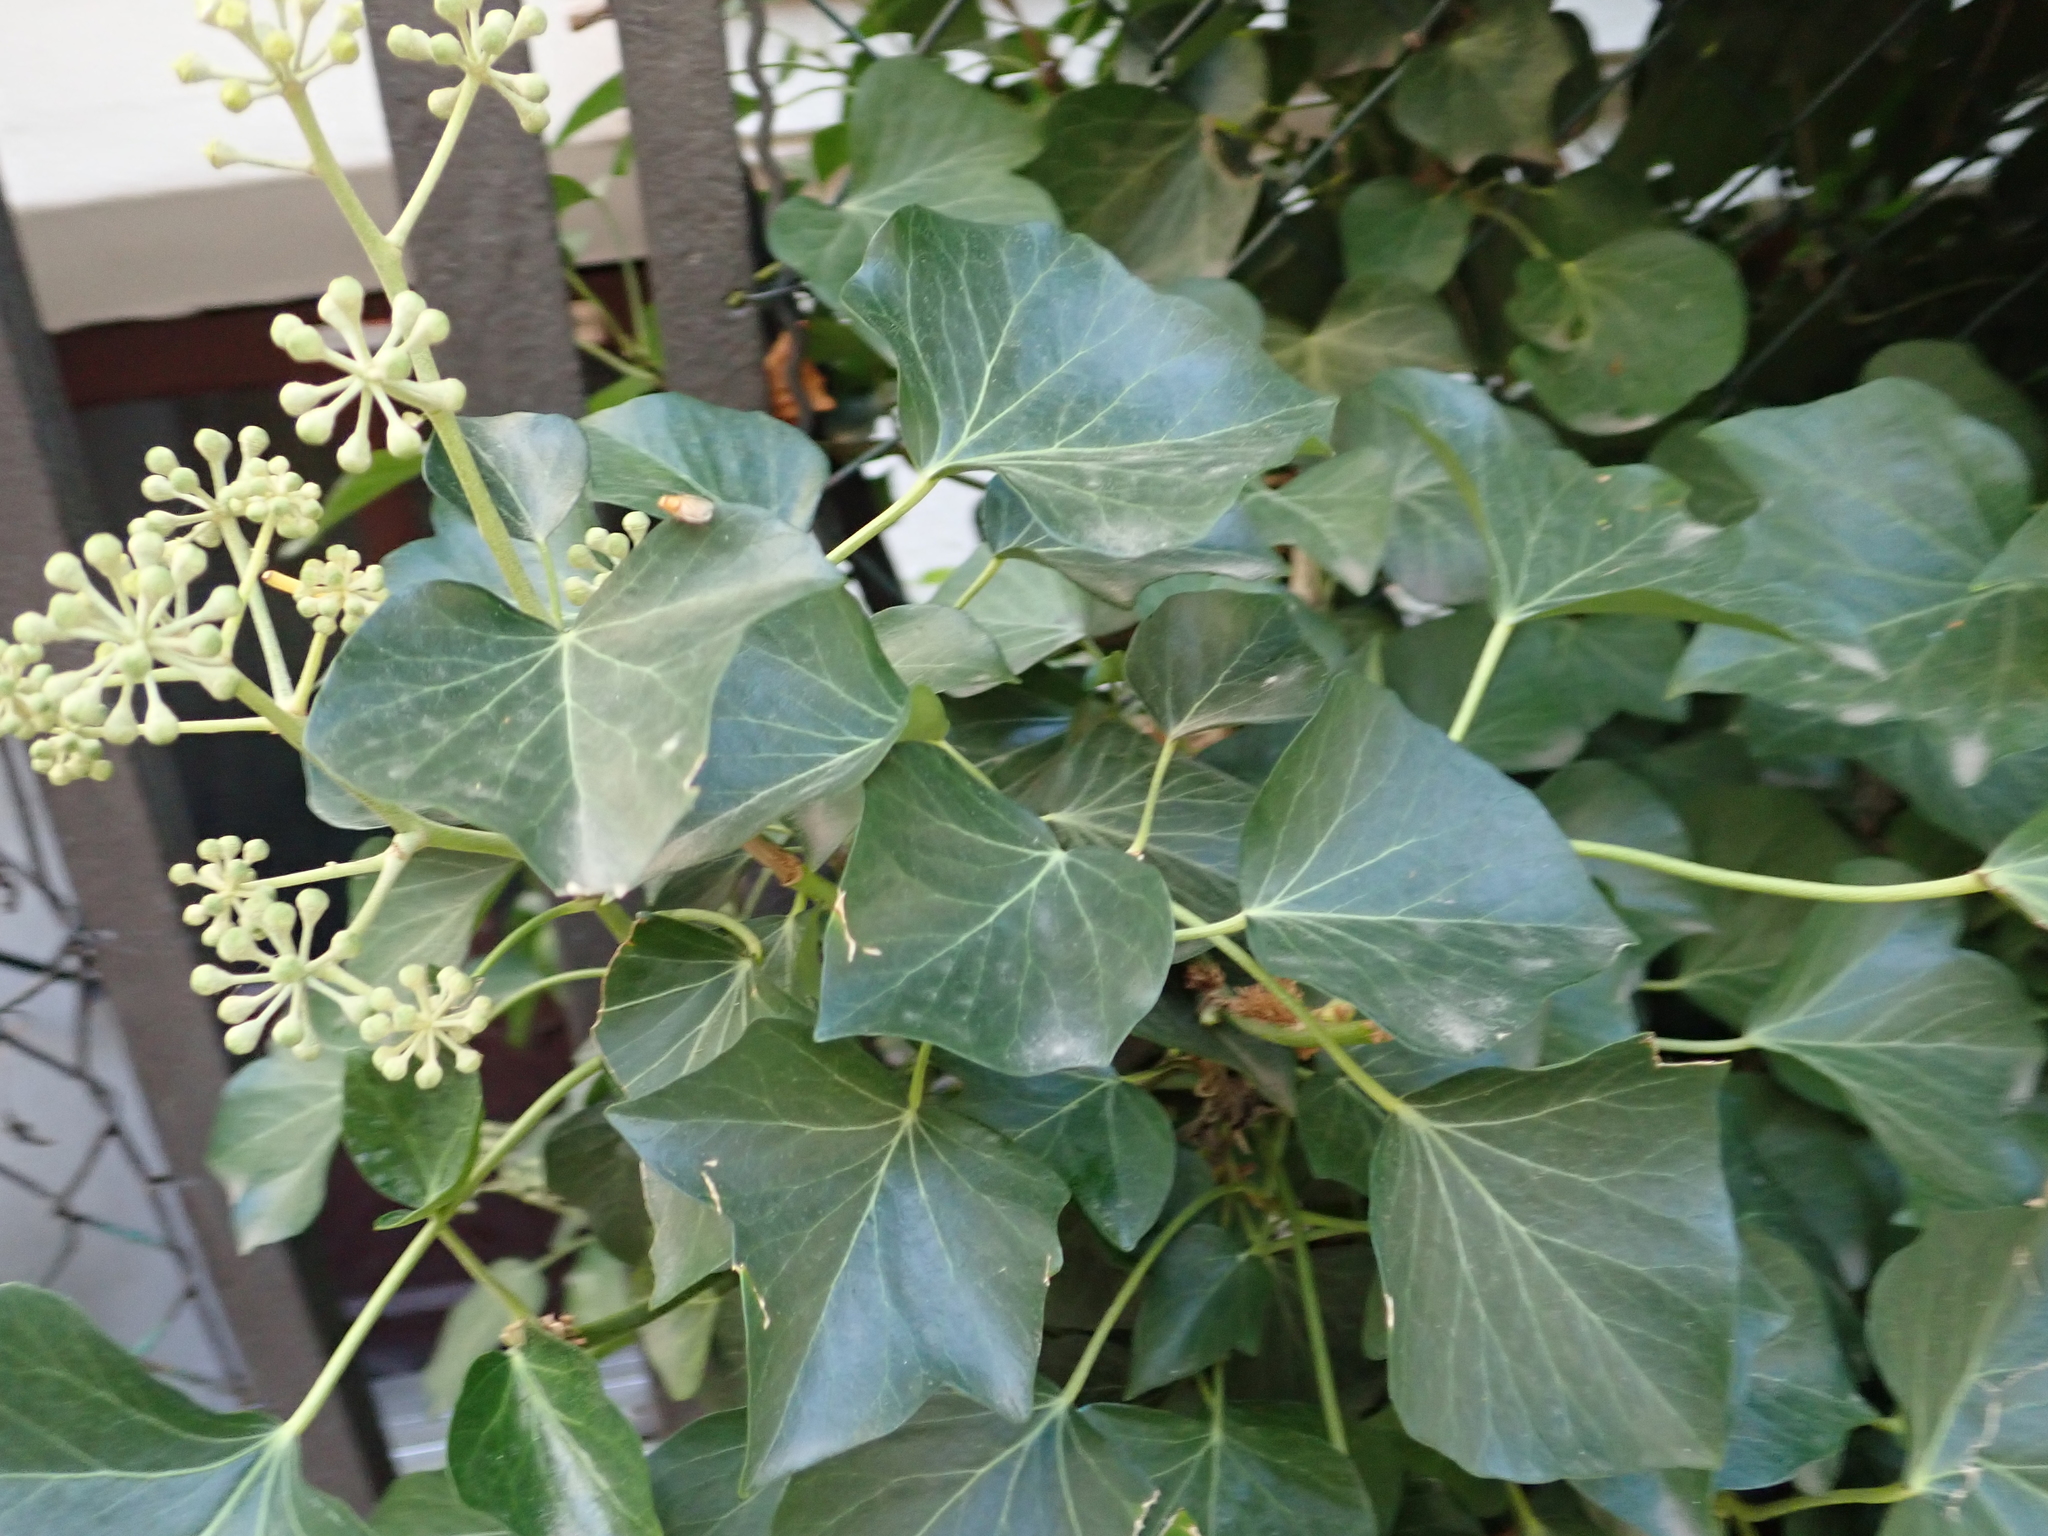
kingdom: Plantae
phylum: Tracheophyta
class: Magnoliopsida
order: Apiales
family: Araliaceae
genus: Hedera
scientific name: Hedera helix
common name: Ivy
